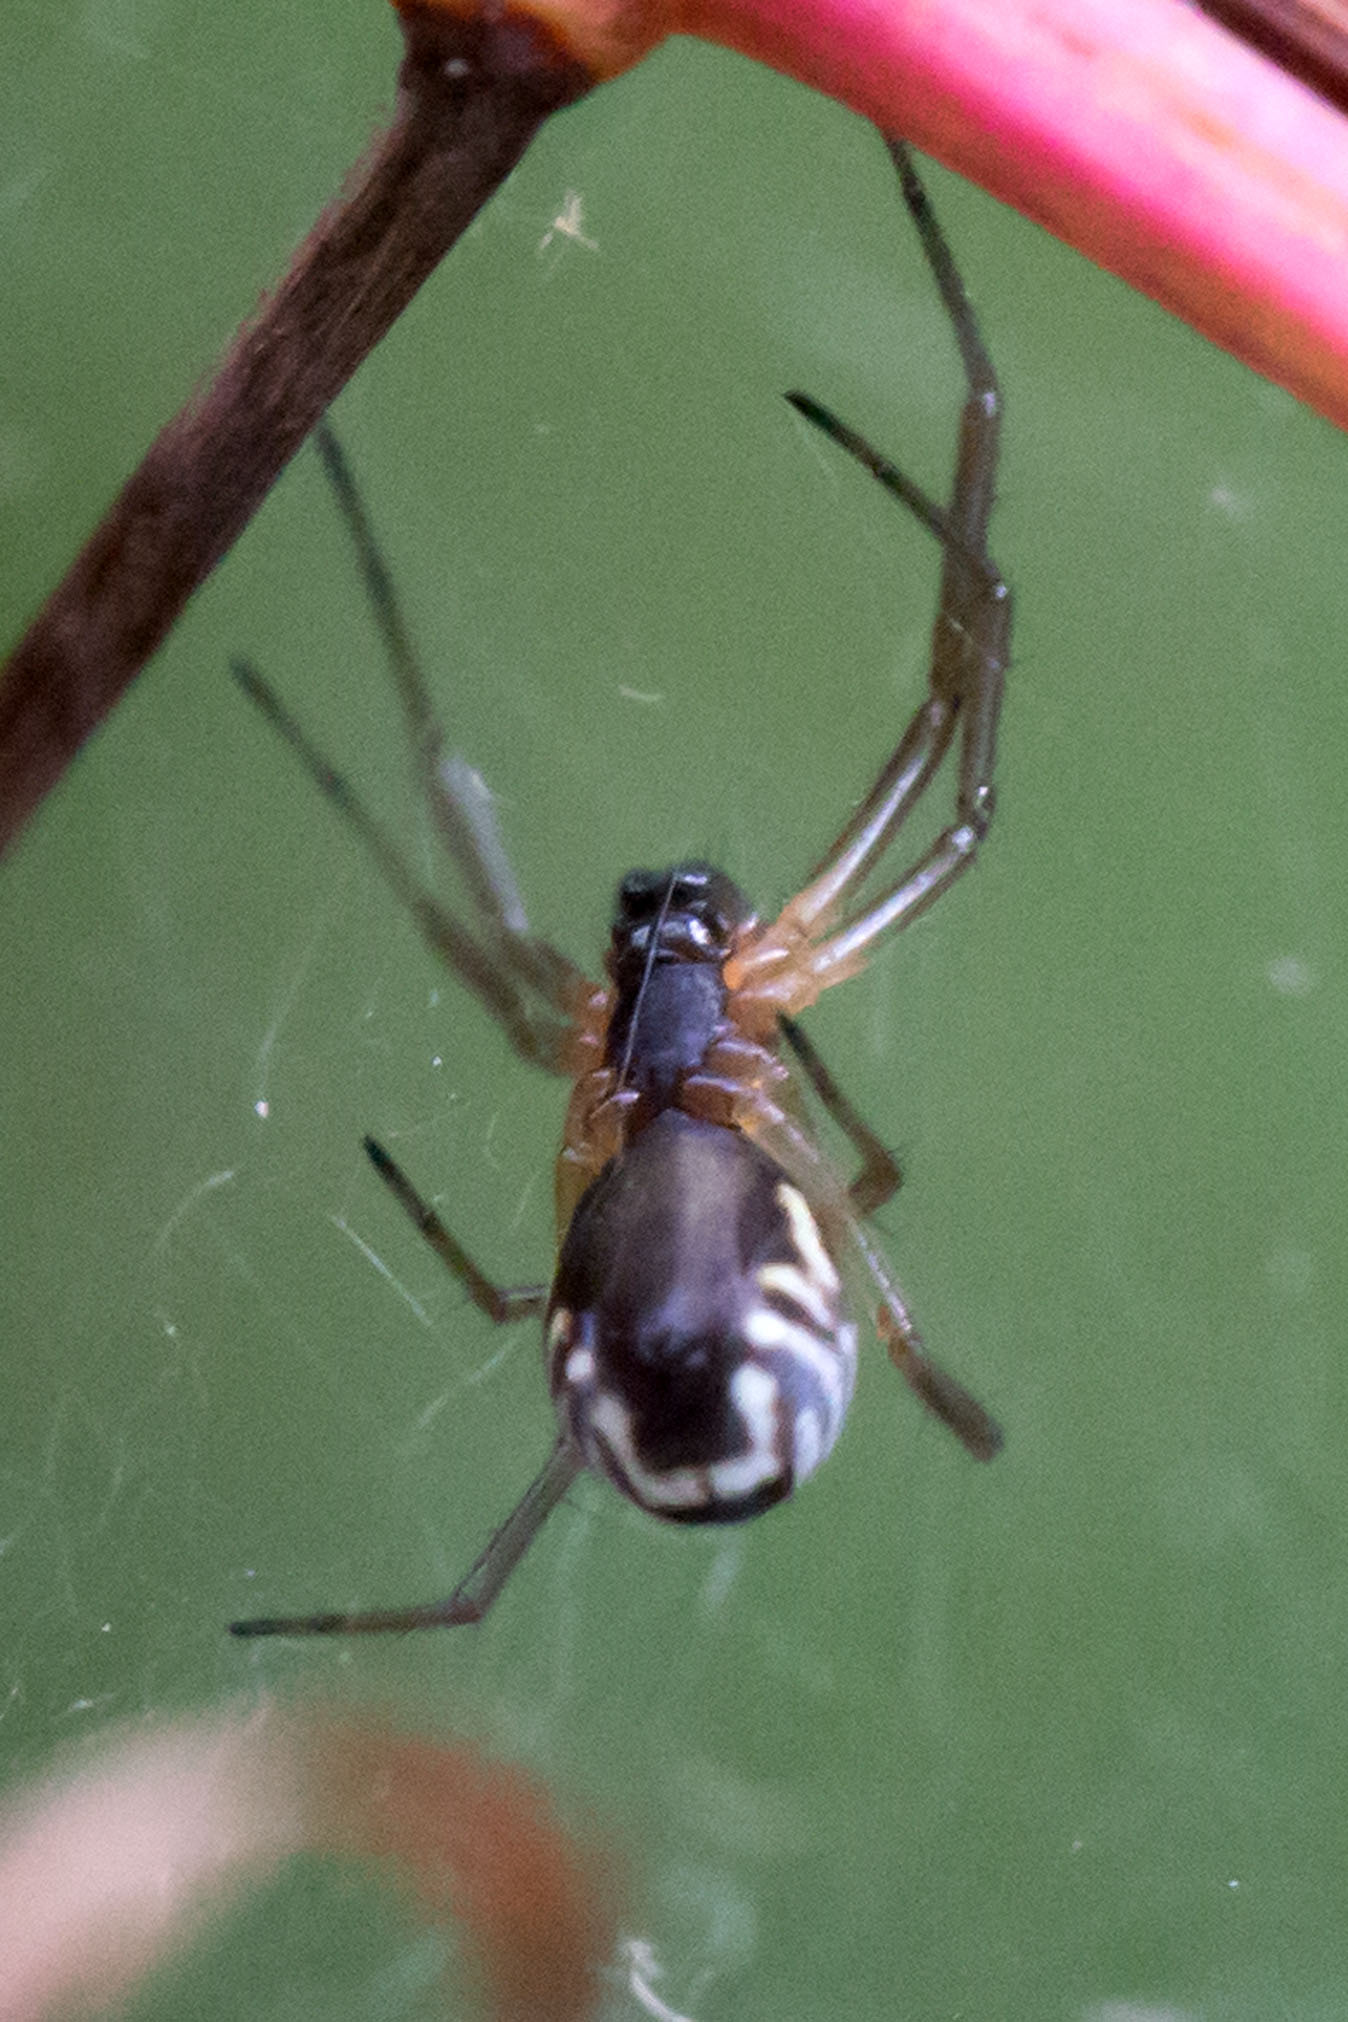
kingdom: Animalia
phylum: Arthropoda
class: Arachnida
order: Araneae
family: Linyphiidae
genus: Frontinella
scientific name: Frontinella pyramitela
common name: Bowl-and-doily spider
